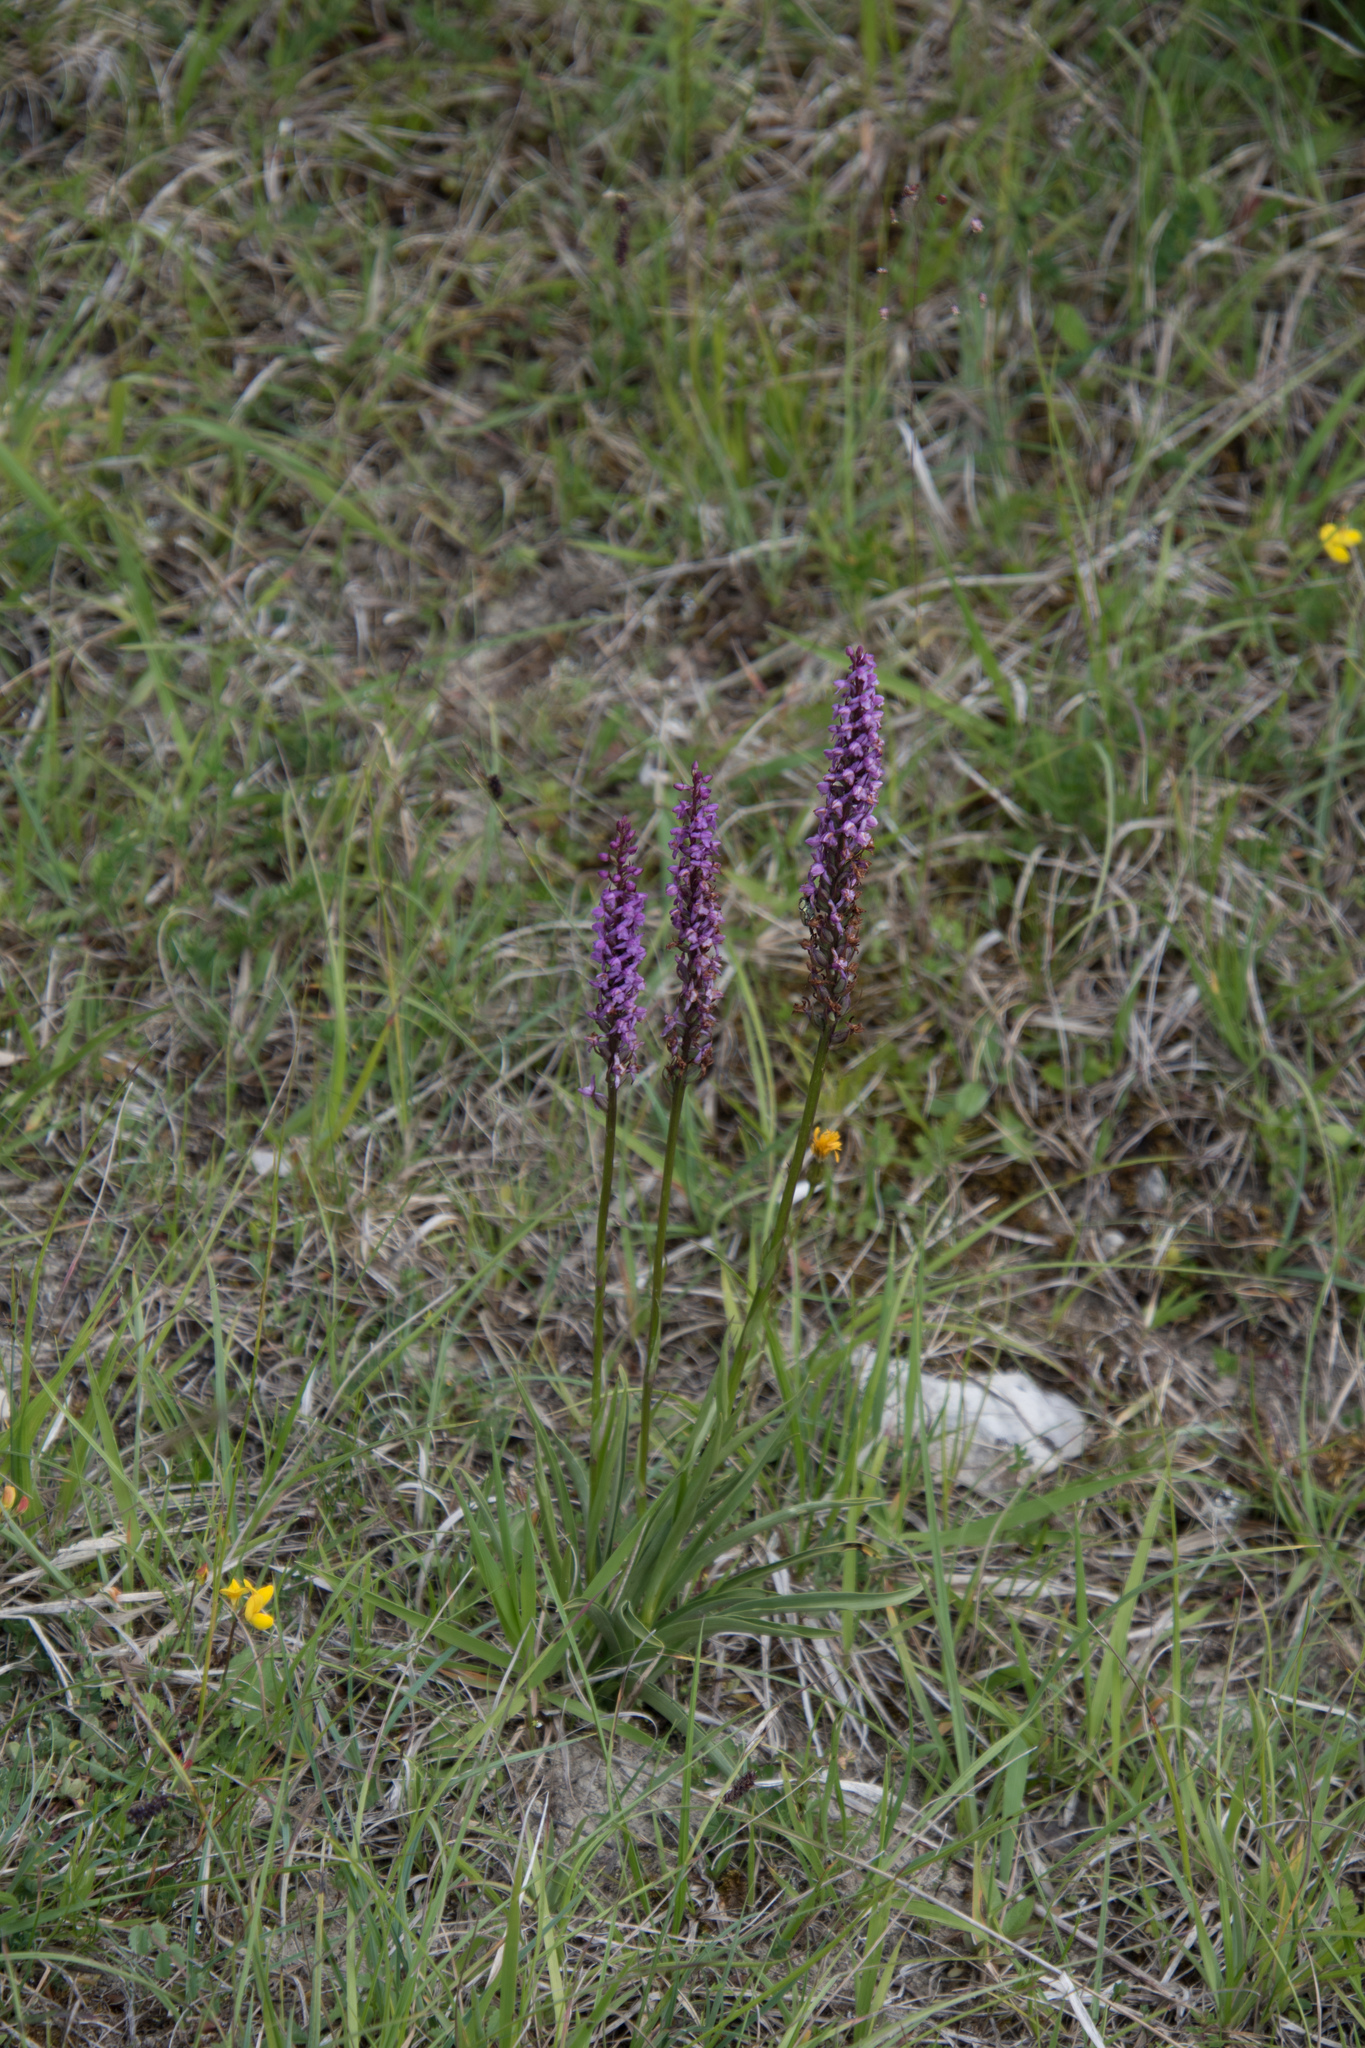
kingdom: Plantae
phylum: Tracheophyta
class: Liliopsida
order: Asparagales
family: Orchidaceae
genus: Gymnadenia
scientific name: Gymnadenia conopsea
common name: Fragrant orchid
